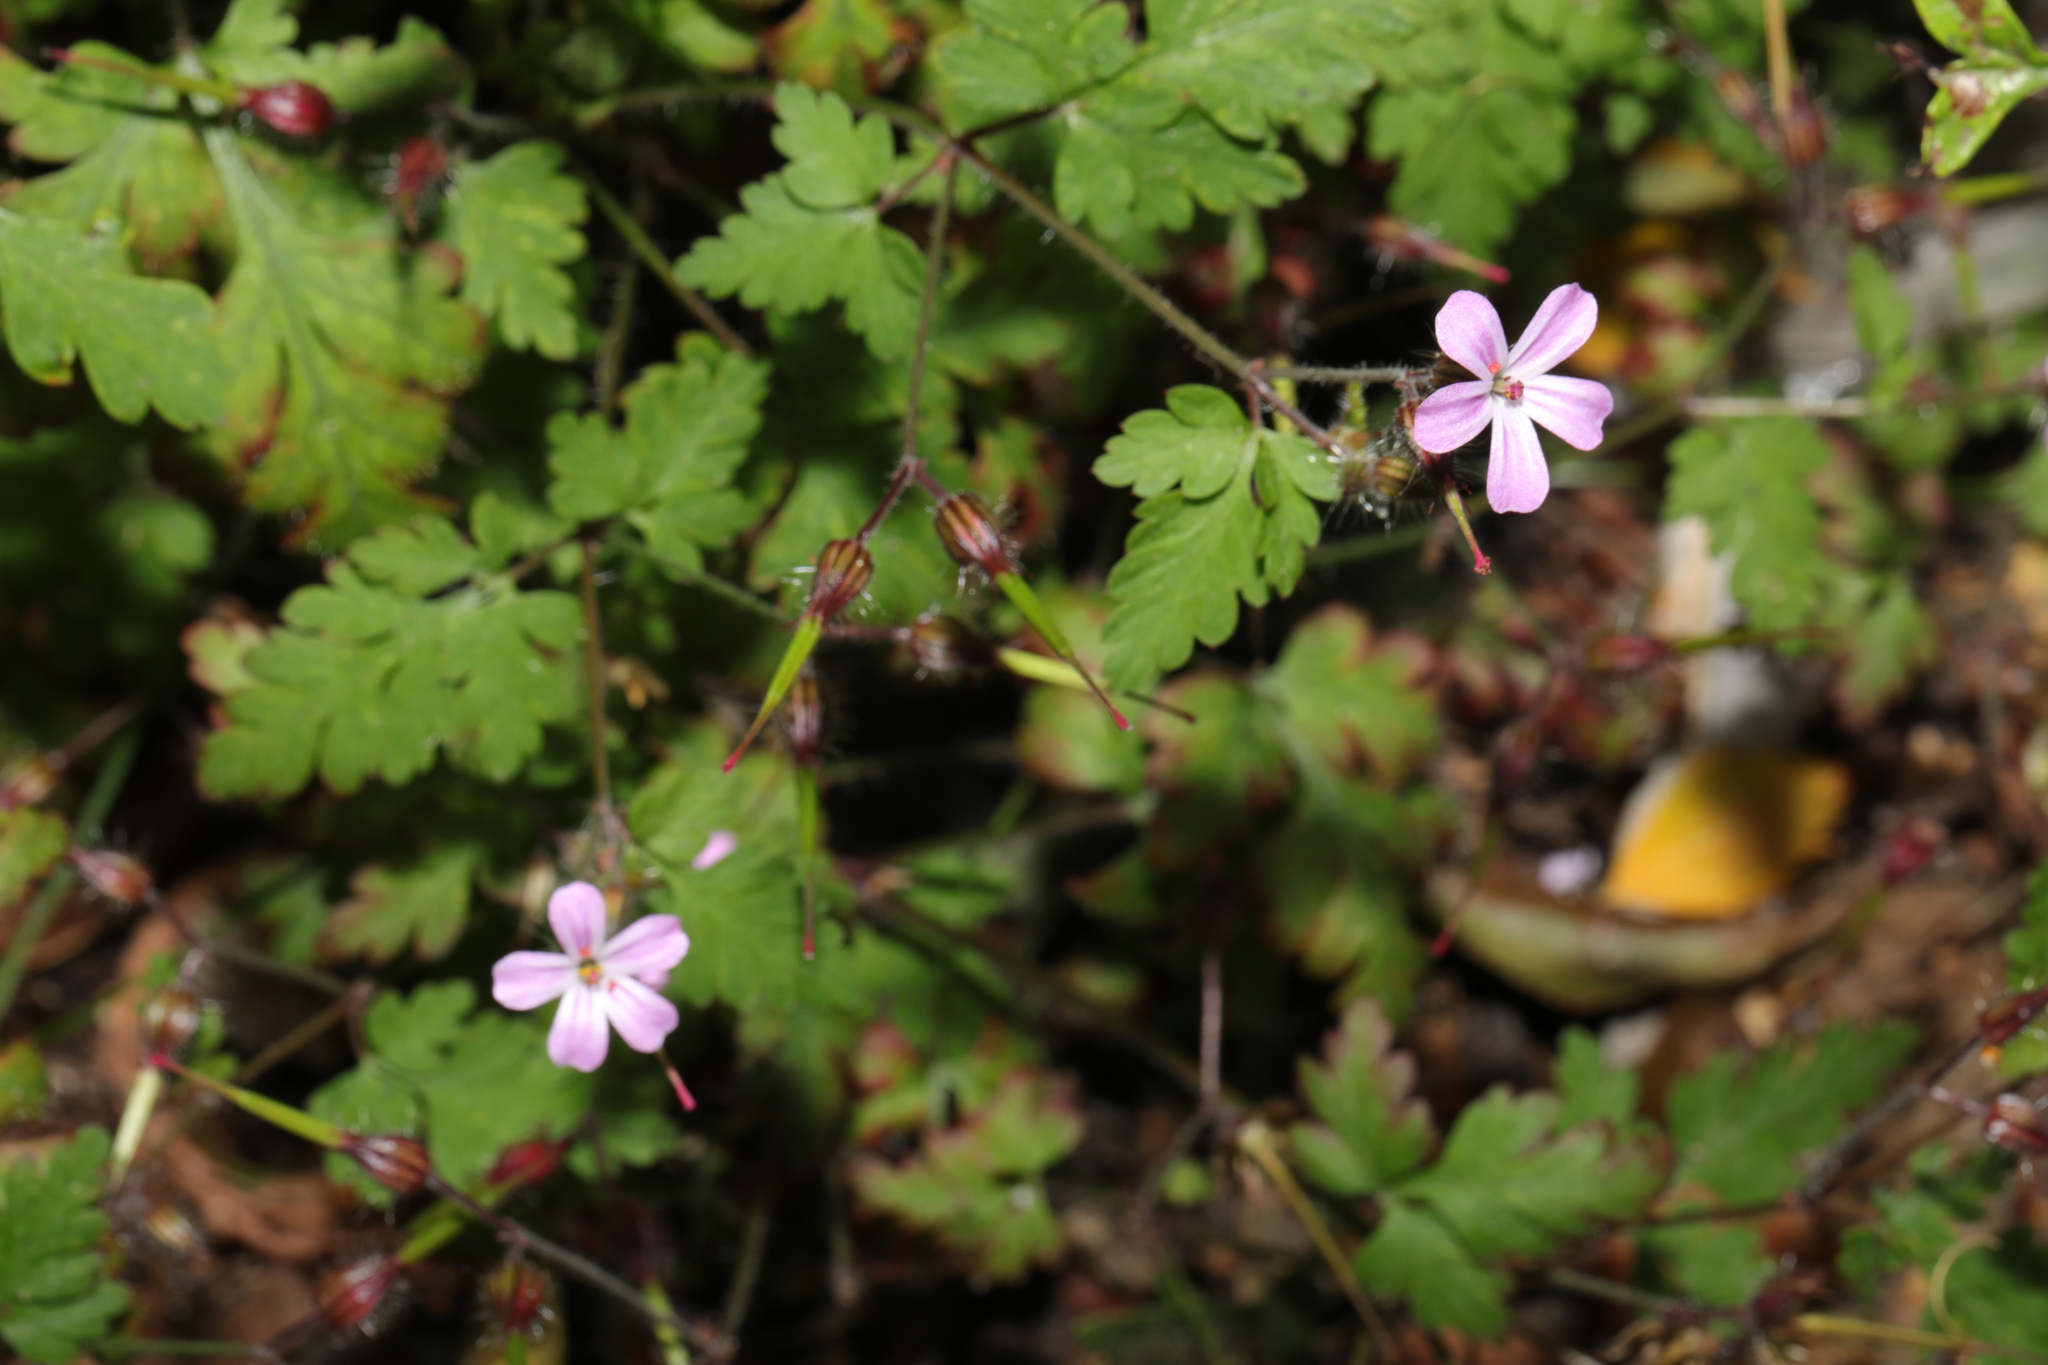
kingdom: Plantae
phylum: Tracheophyta
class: Magnoliopsida
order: Geraniales
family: Geraniaceae
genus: Geranium
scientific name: Geranium robertianum
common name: Herb-robert
